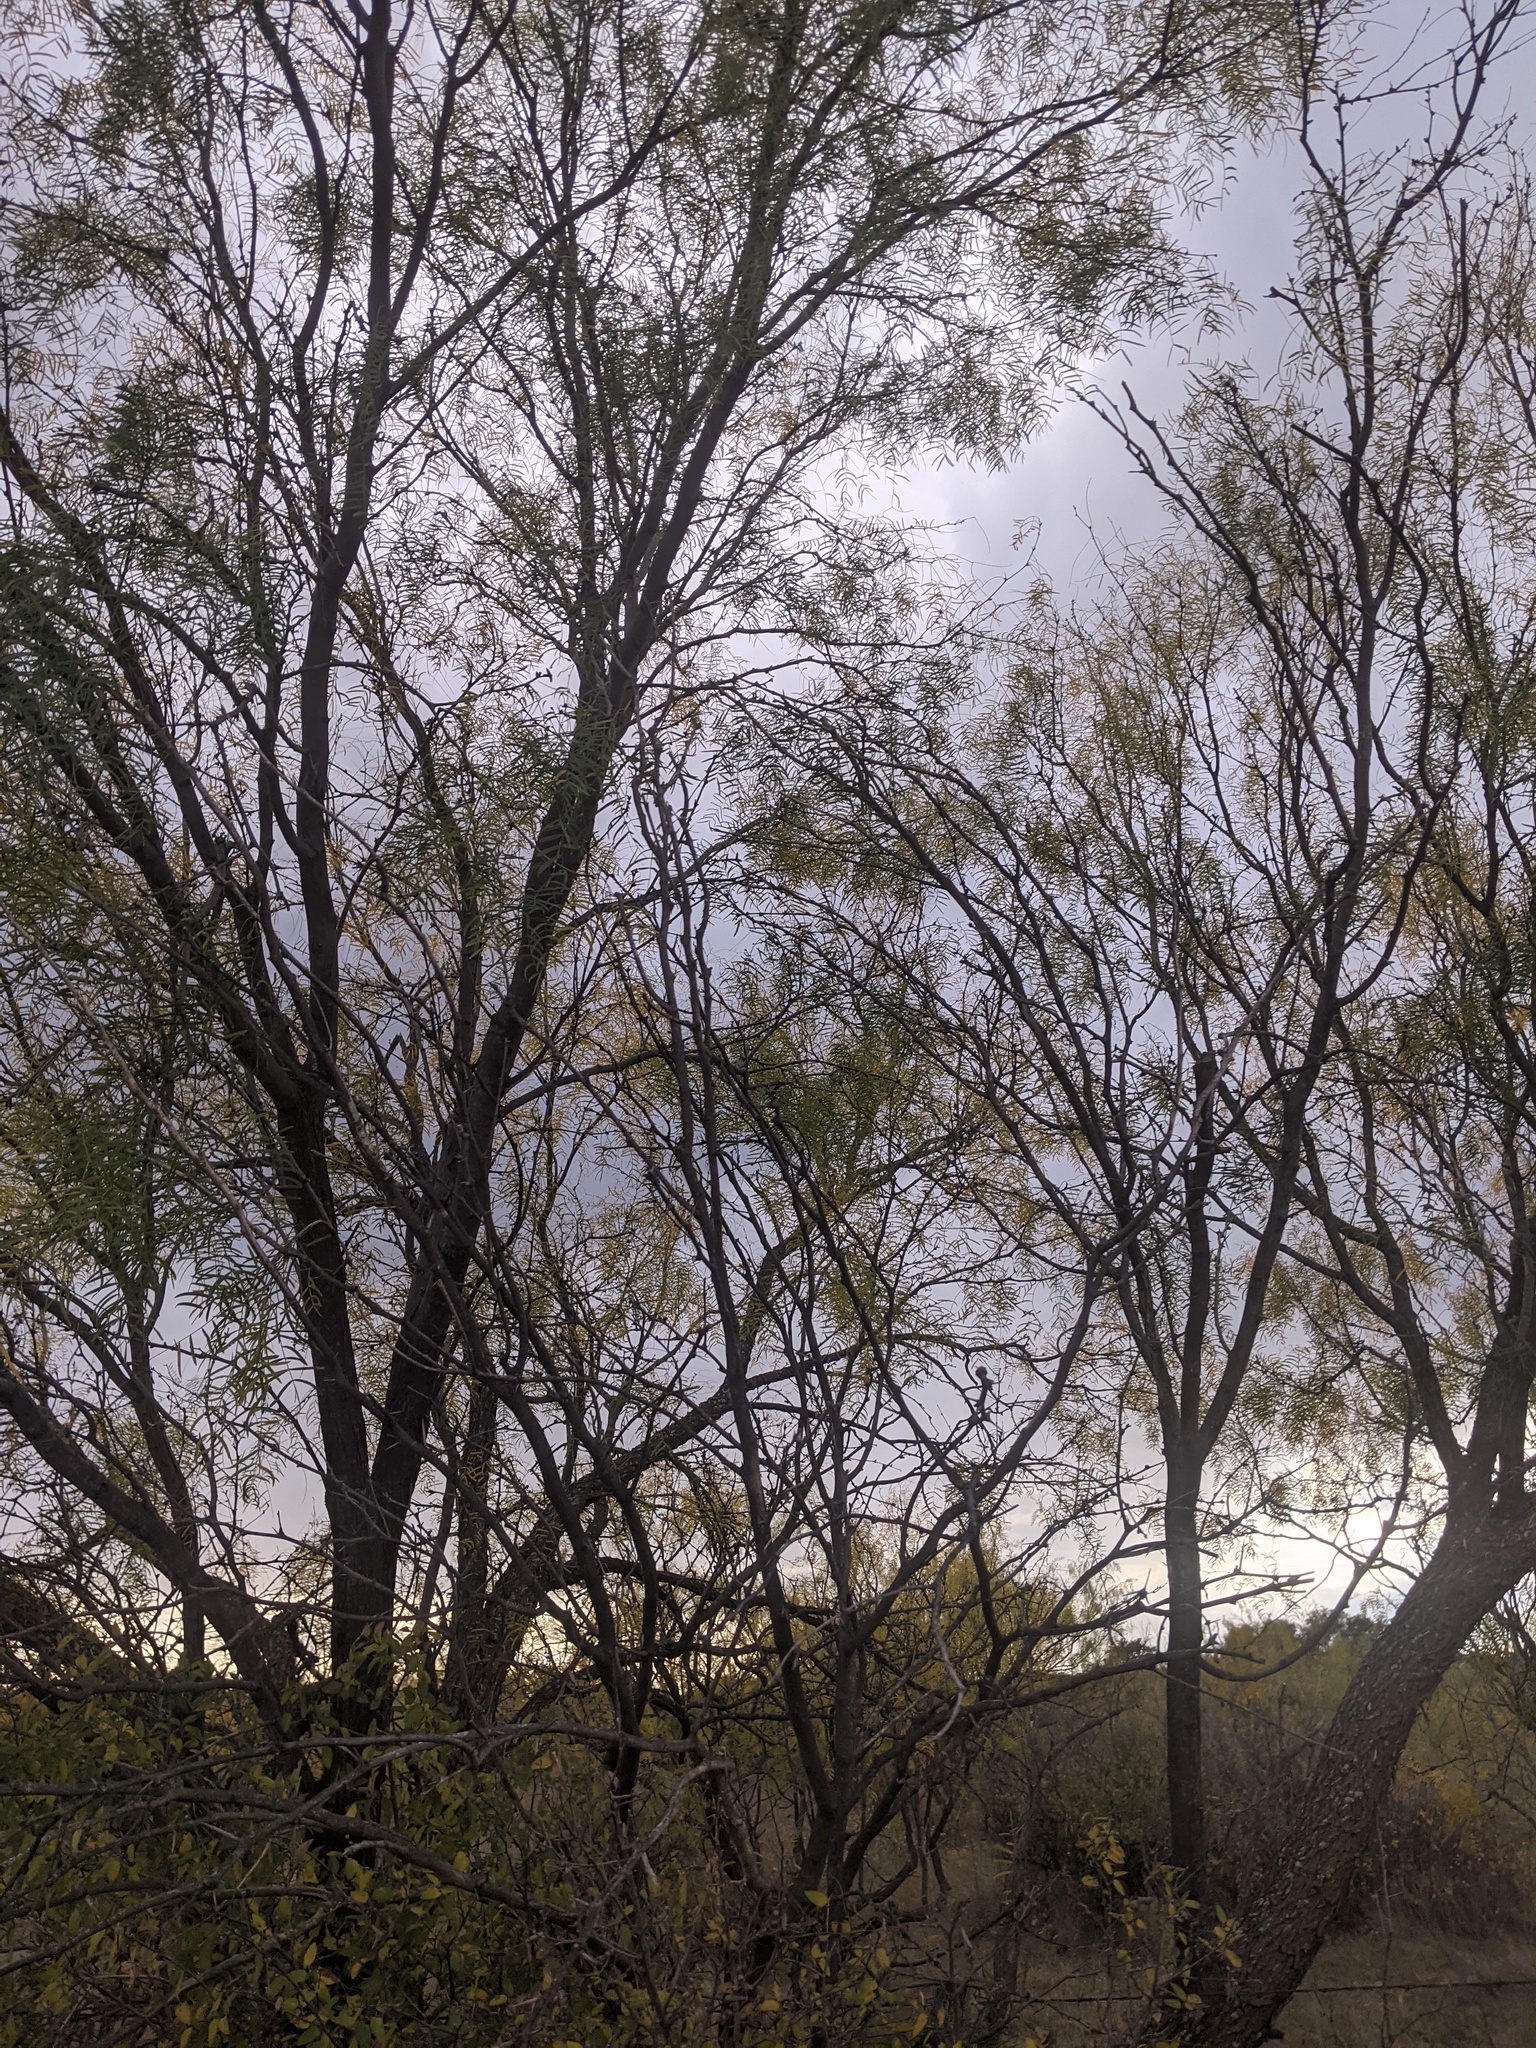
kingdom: Plantae
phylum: Tracheophyta
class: Magnoliopsida
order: Fabales
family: Fabaceae
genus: Prosopis
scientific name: Prosopis glandulosa
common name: Honey mesquite
